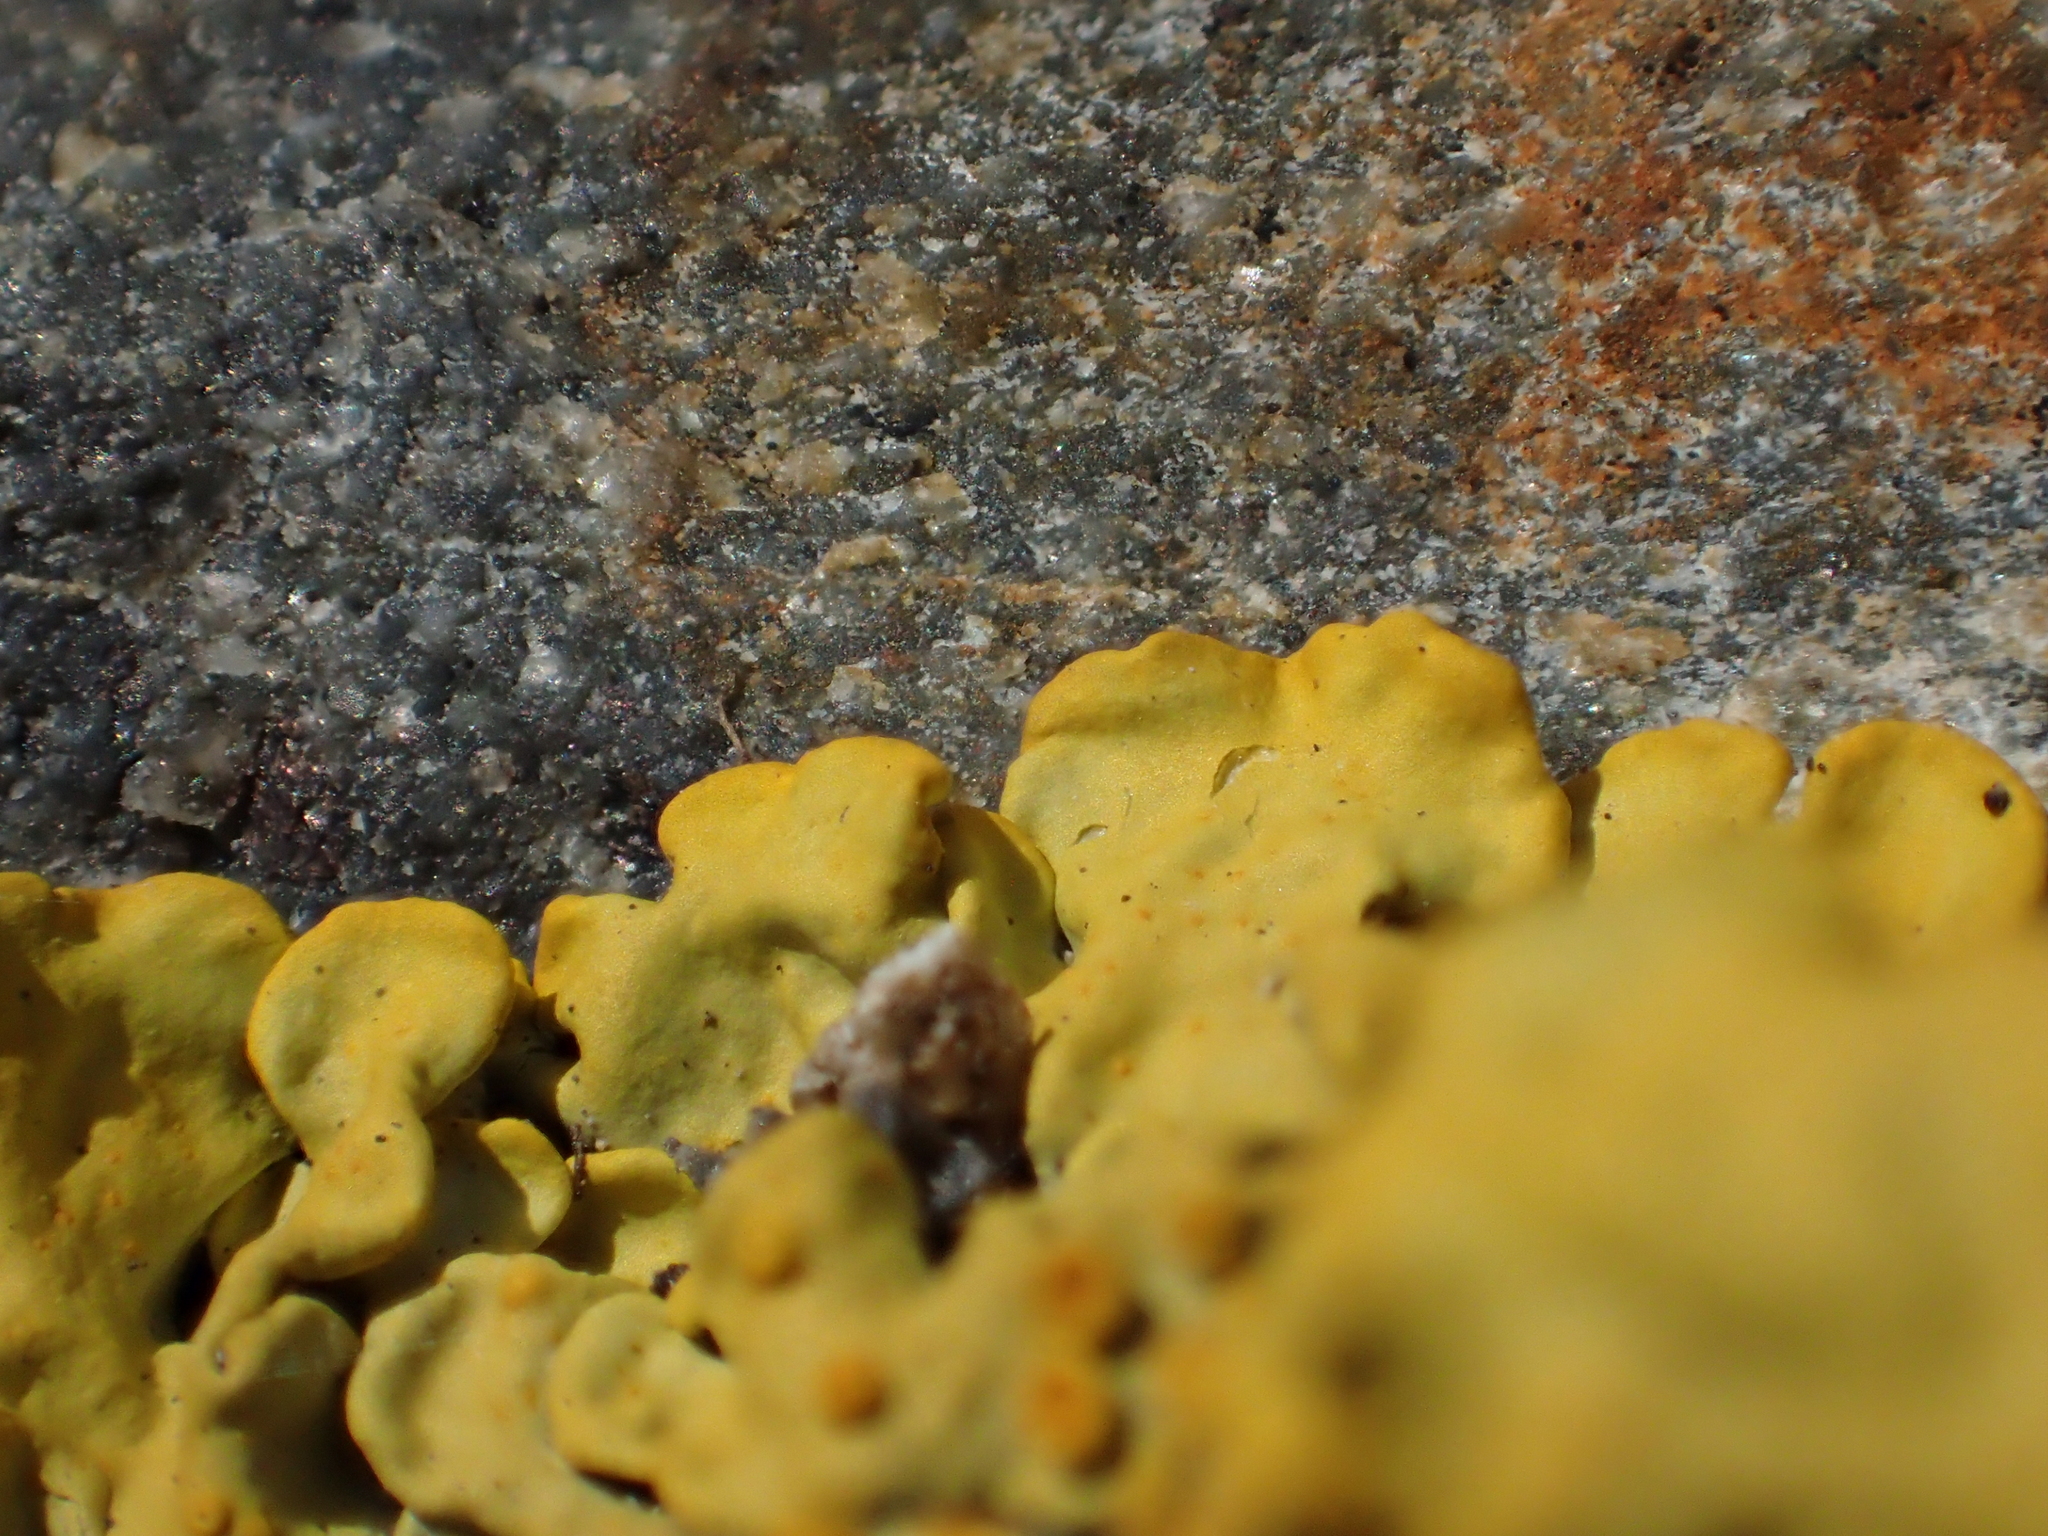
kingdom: Fungi
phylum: Ascomycota
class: Lecanoromycetes
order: Teloschistales
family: Teloschistaceae
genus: Xanthoria
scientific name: Xanthoria parietina
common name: Common orange lichen
